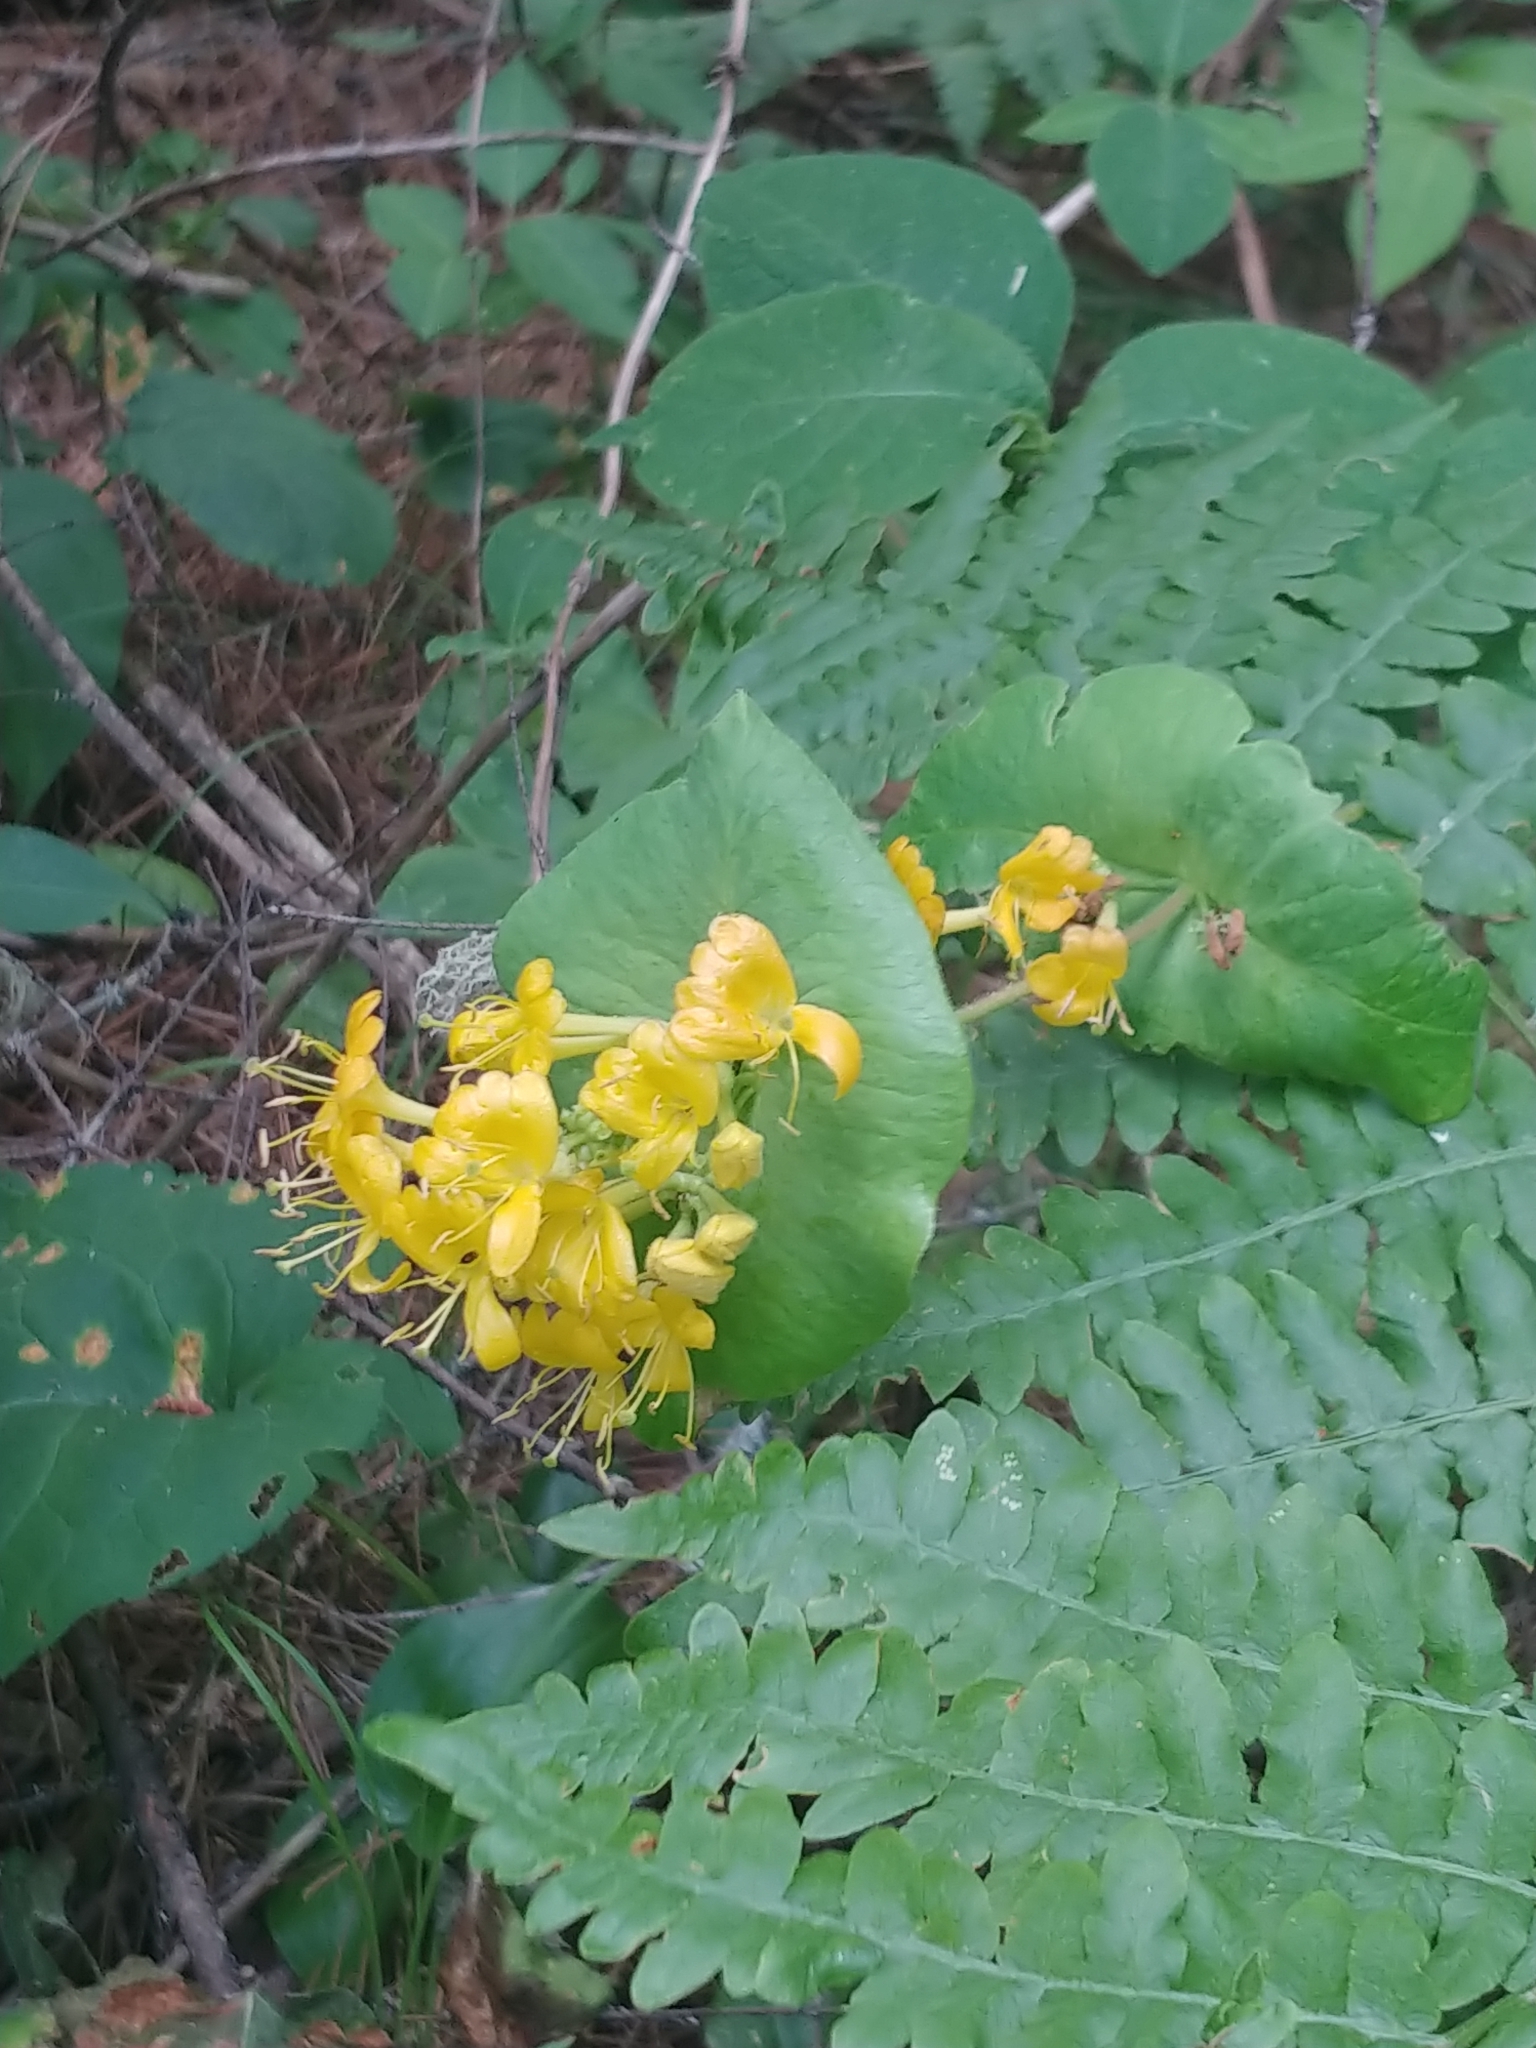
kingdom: Plantae
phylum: Tracheophyta
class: Magnoliopsida
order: Dipsacales
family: Caprifoliaceae
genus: Lonicera
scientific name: Lonicera hirsuta
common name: Hairy honeysuckle
